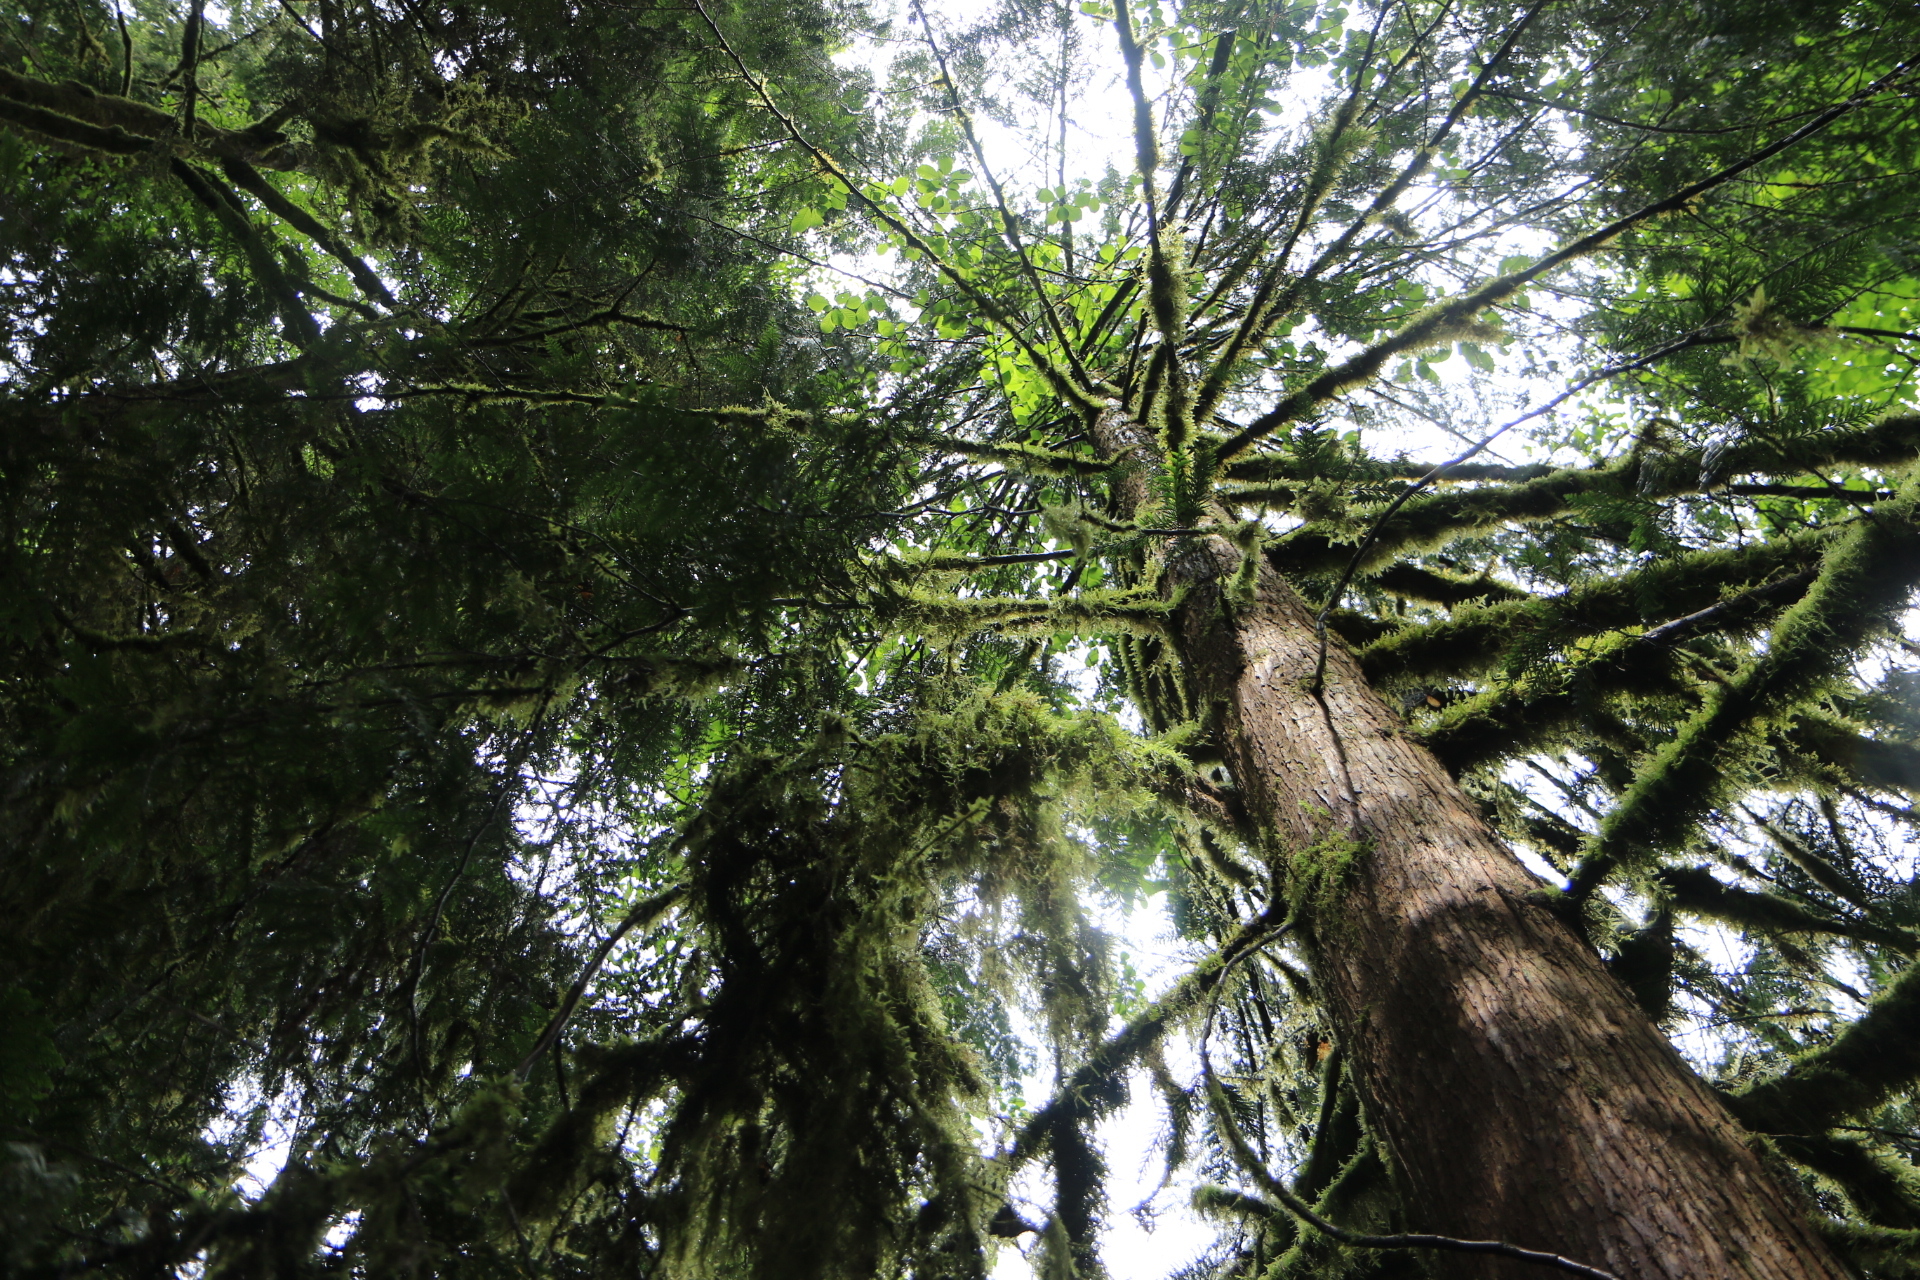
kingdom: Plantae
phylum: Tracheophyta
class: Pinopsida
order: Pinales
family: Cupressaceae
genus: Thuja
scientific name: Thuja plicata
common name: Western red-cedar
